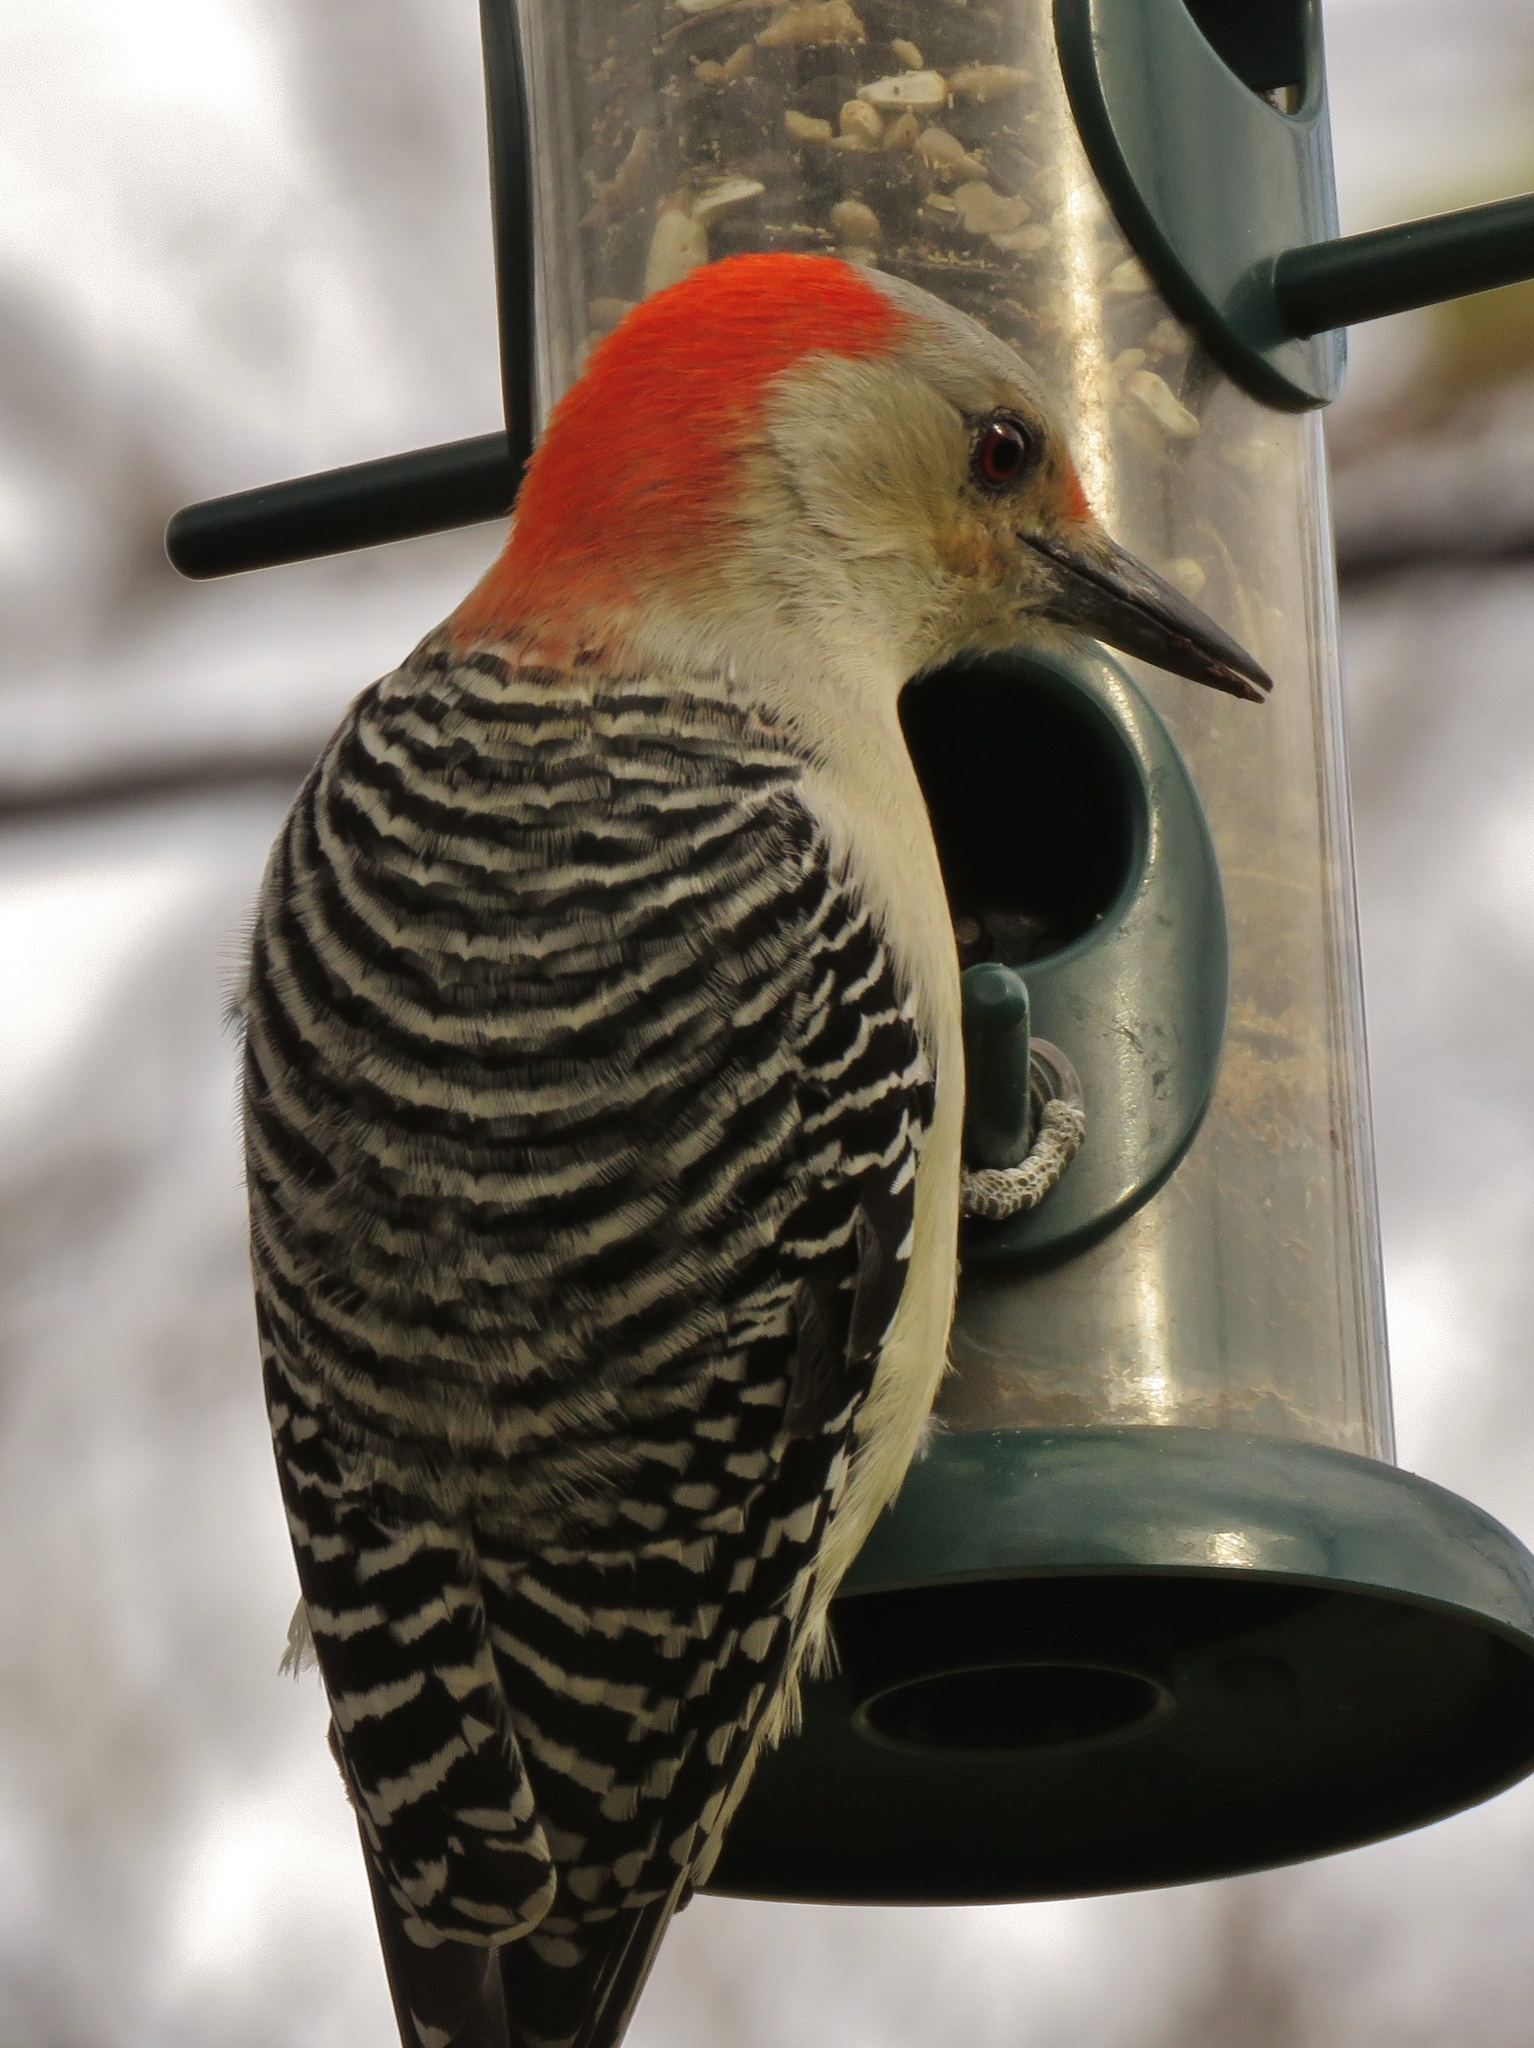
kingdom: Animalia
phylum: Chordata
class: Aves
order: Piciformes
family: Picidae
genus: Melanerpes
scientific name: Melanerpes carolinus
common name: Red-bellied woodpecker
